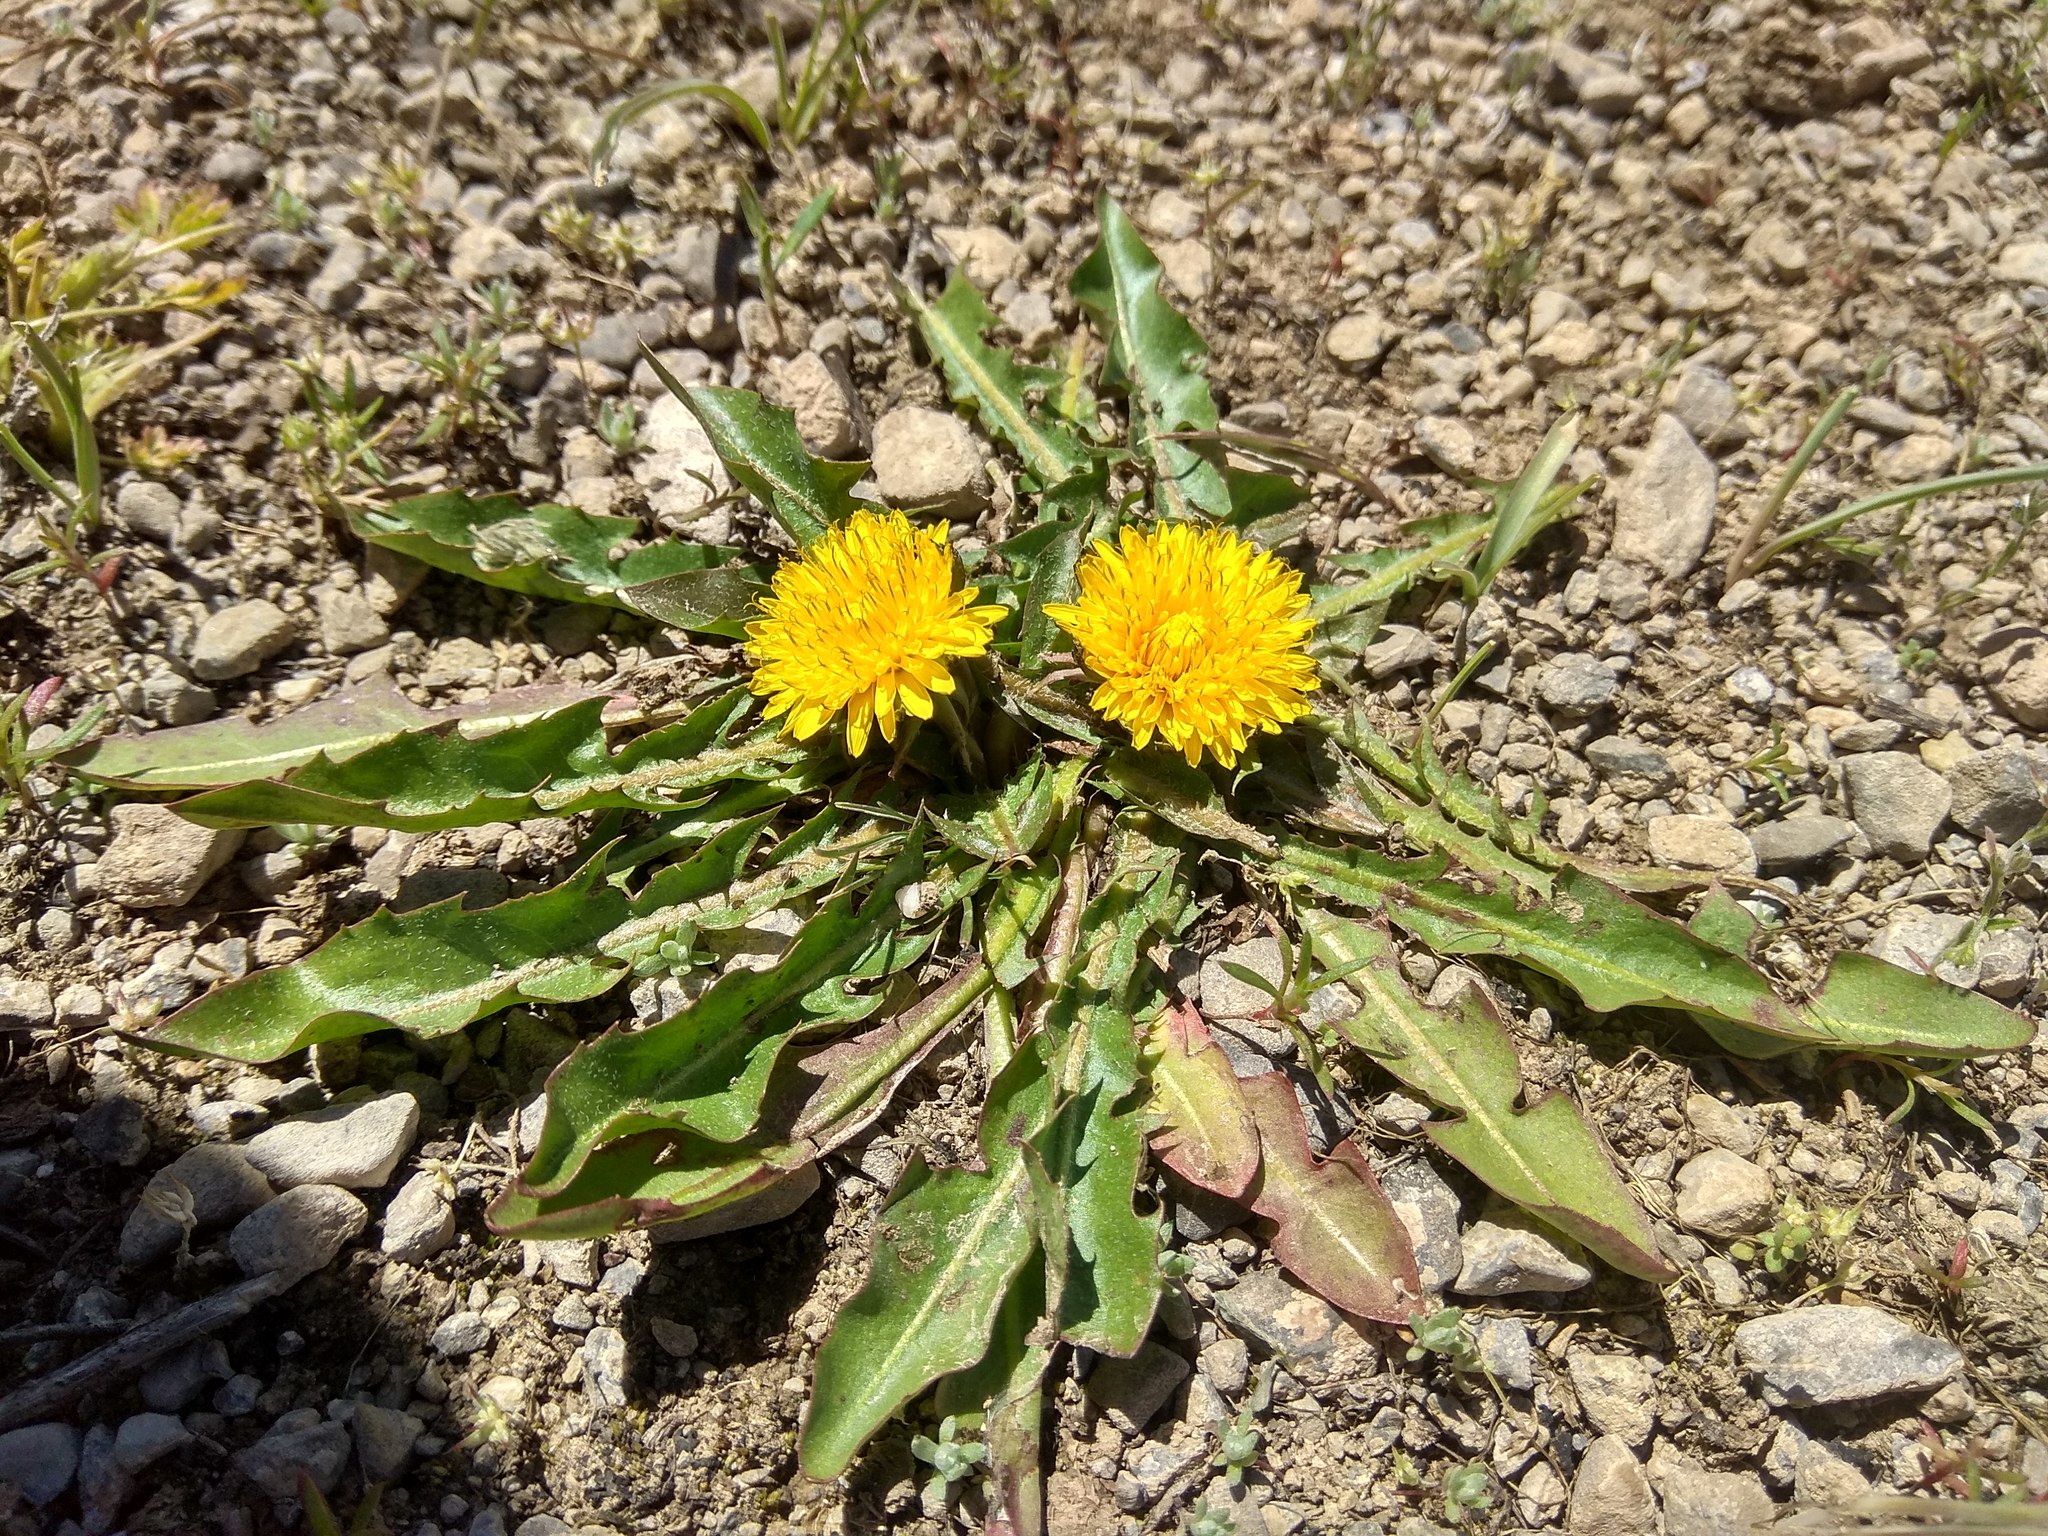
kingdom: Plantae
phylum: Tracheophyta
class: Magnoliopsida
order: Asterales
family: Asteraceae
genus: Taraxacum
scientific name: Taraxacum officinale
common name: Common dandelion
